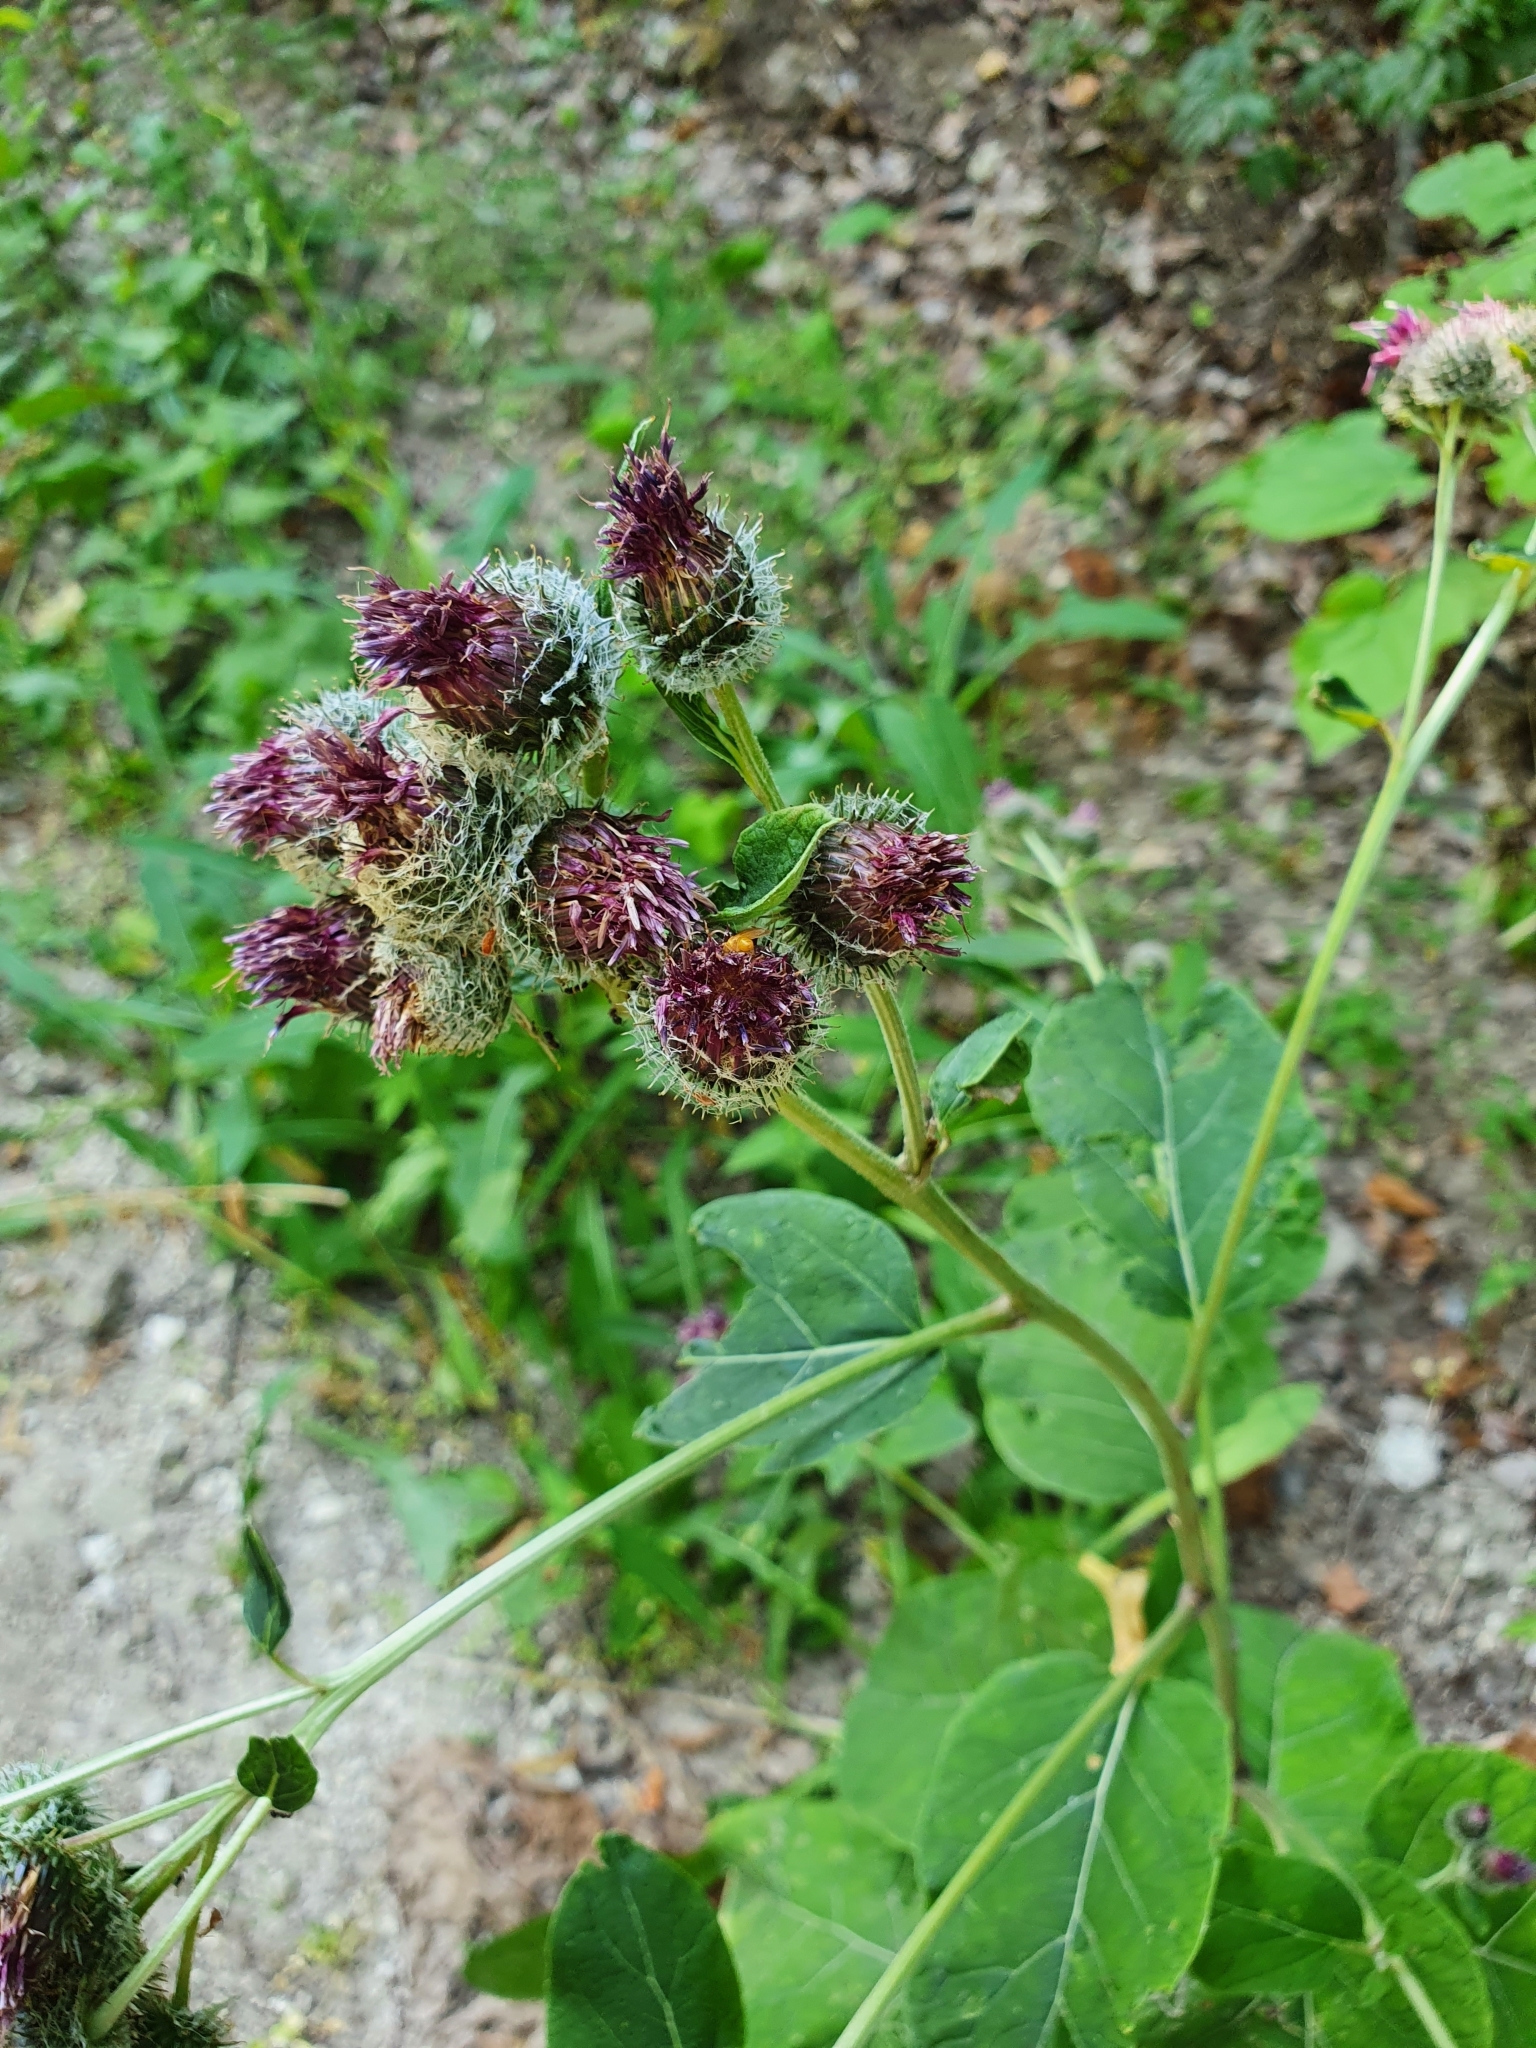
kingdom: Plantae
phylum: Tracheophyta
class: Magnoliopsida
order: Asterales
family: Asteraceae
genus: Arctium
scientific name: Arctium tomentosum
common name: Woolly burdock
